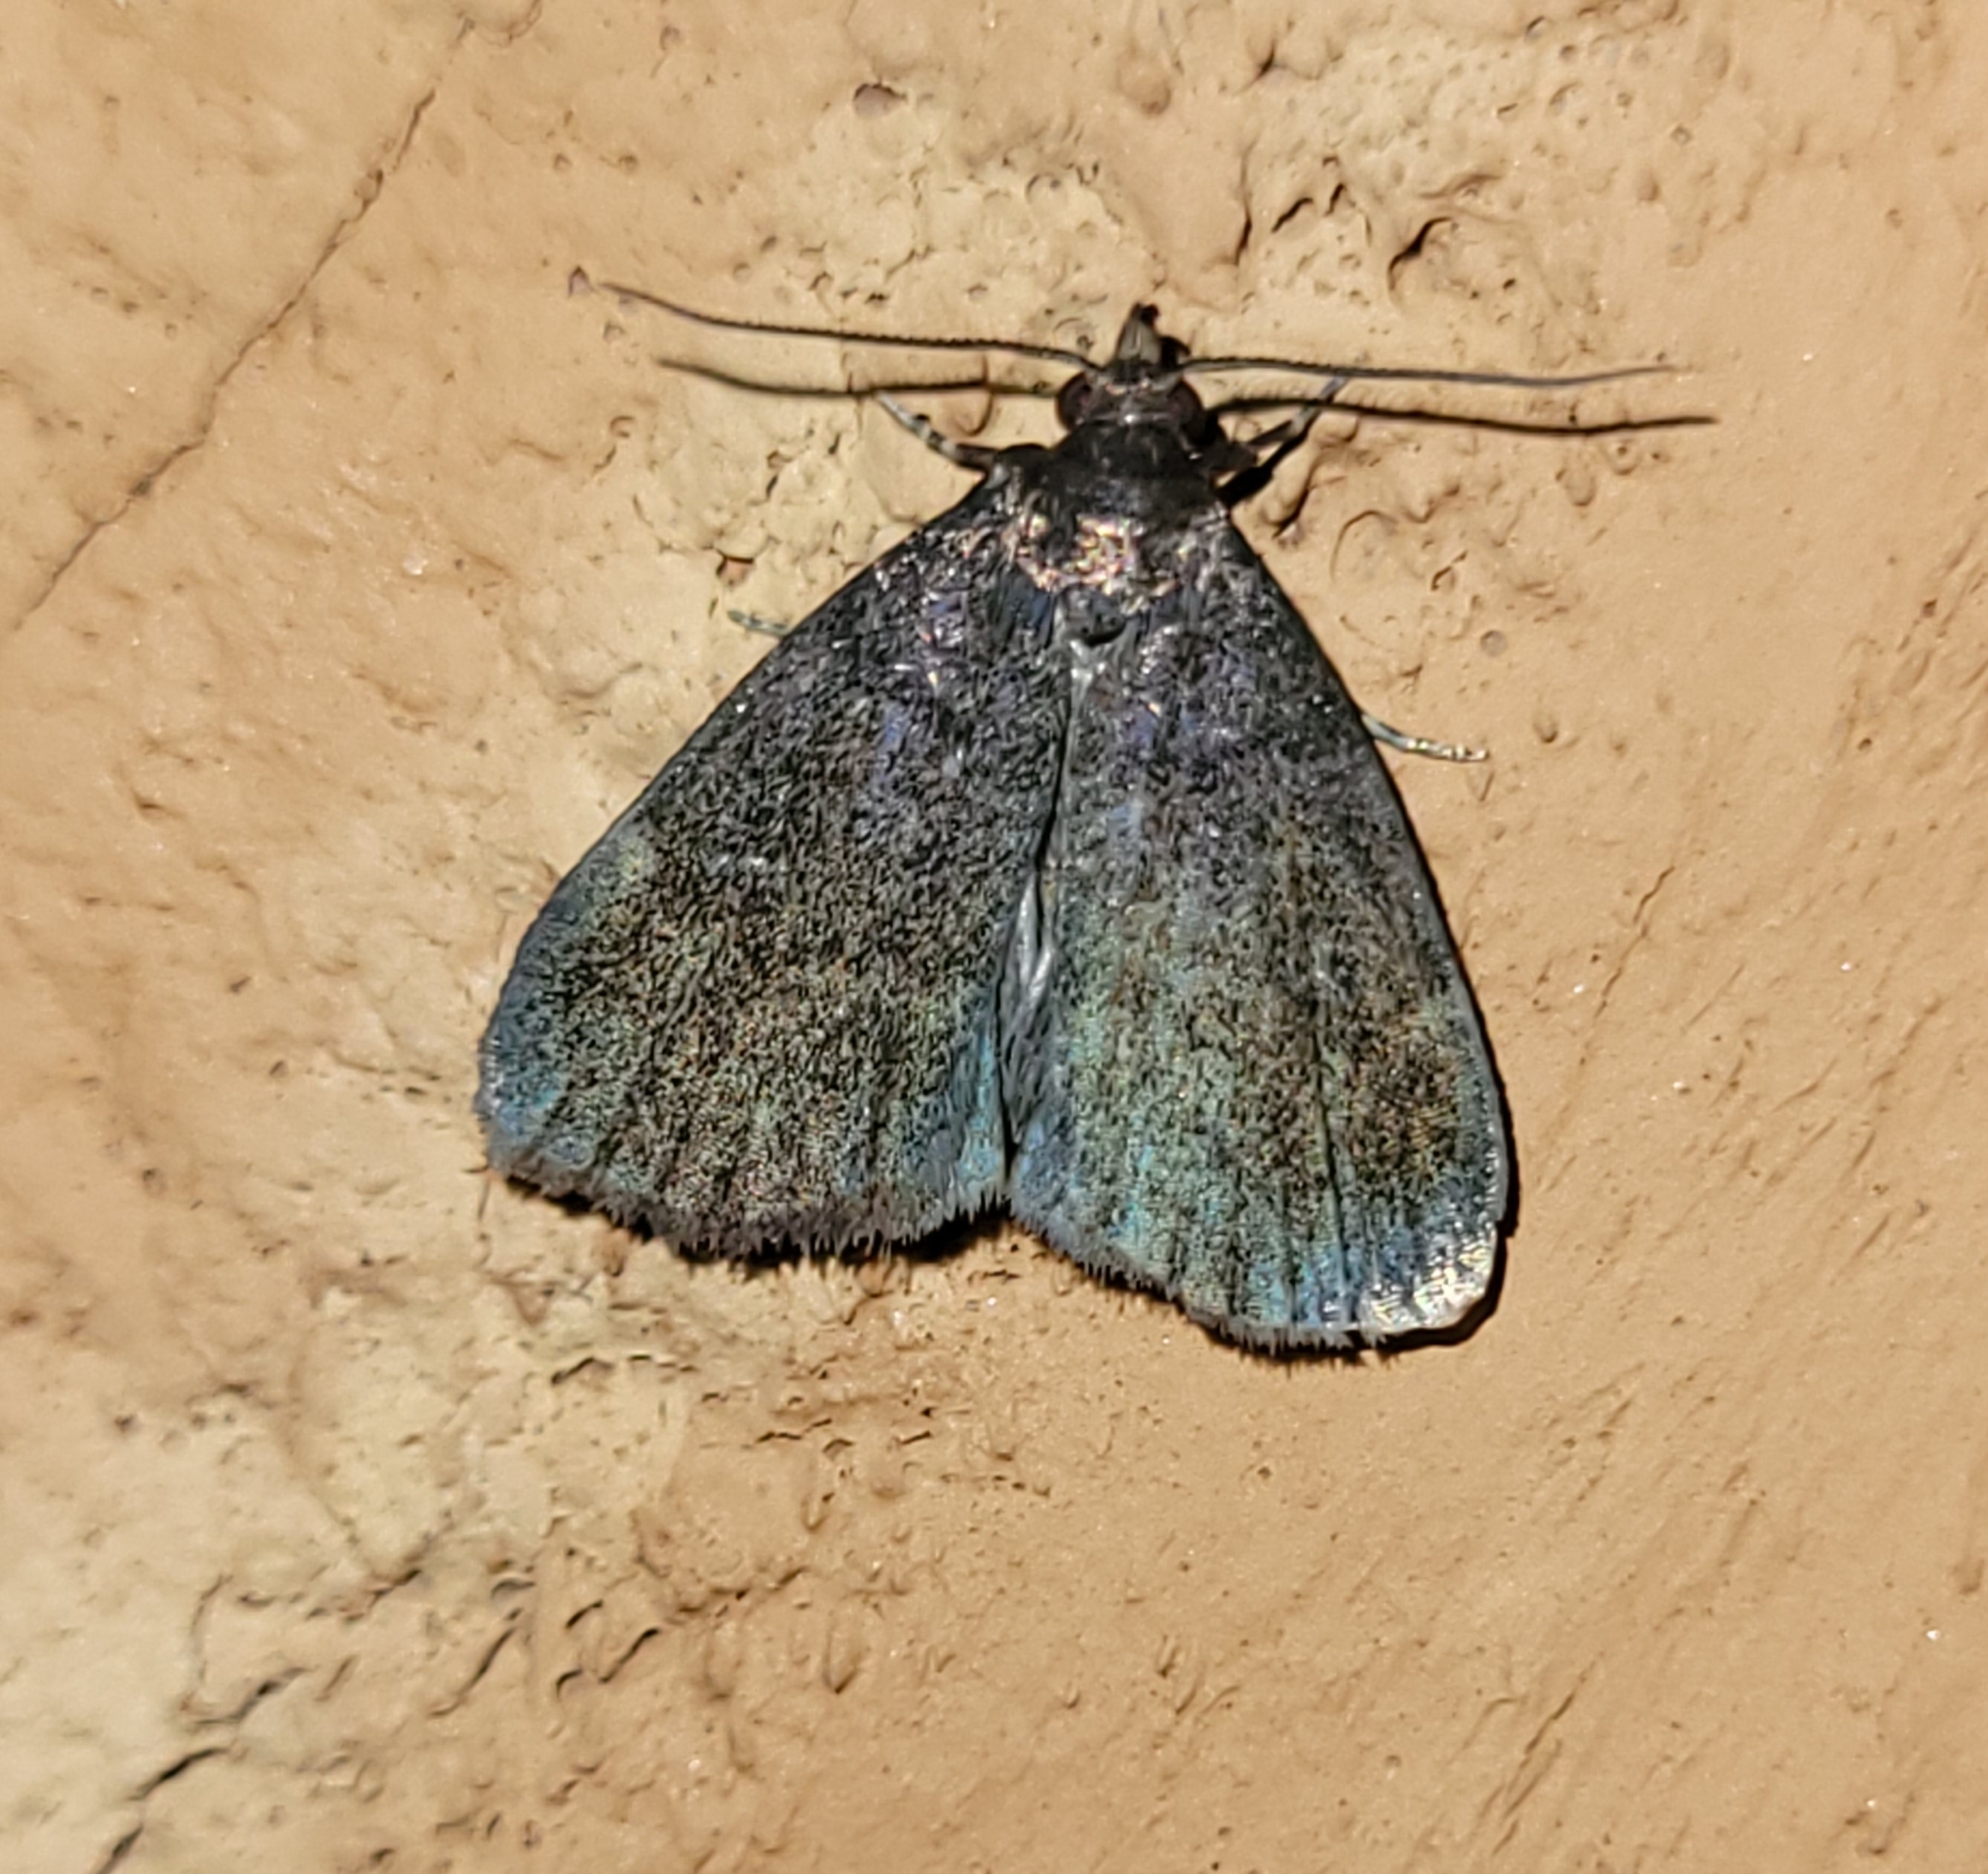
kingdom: Animalia
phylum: Arthropoda
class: Insecta
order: Lepidoptera
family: Erebidae
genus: Idia
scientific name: Idia rotundalis
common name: Rotund idia moth
